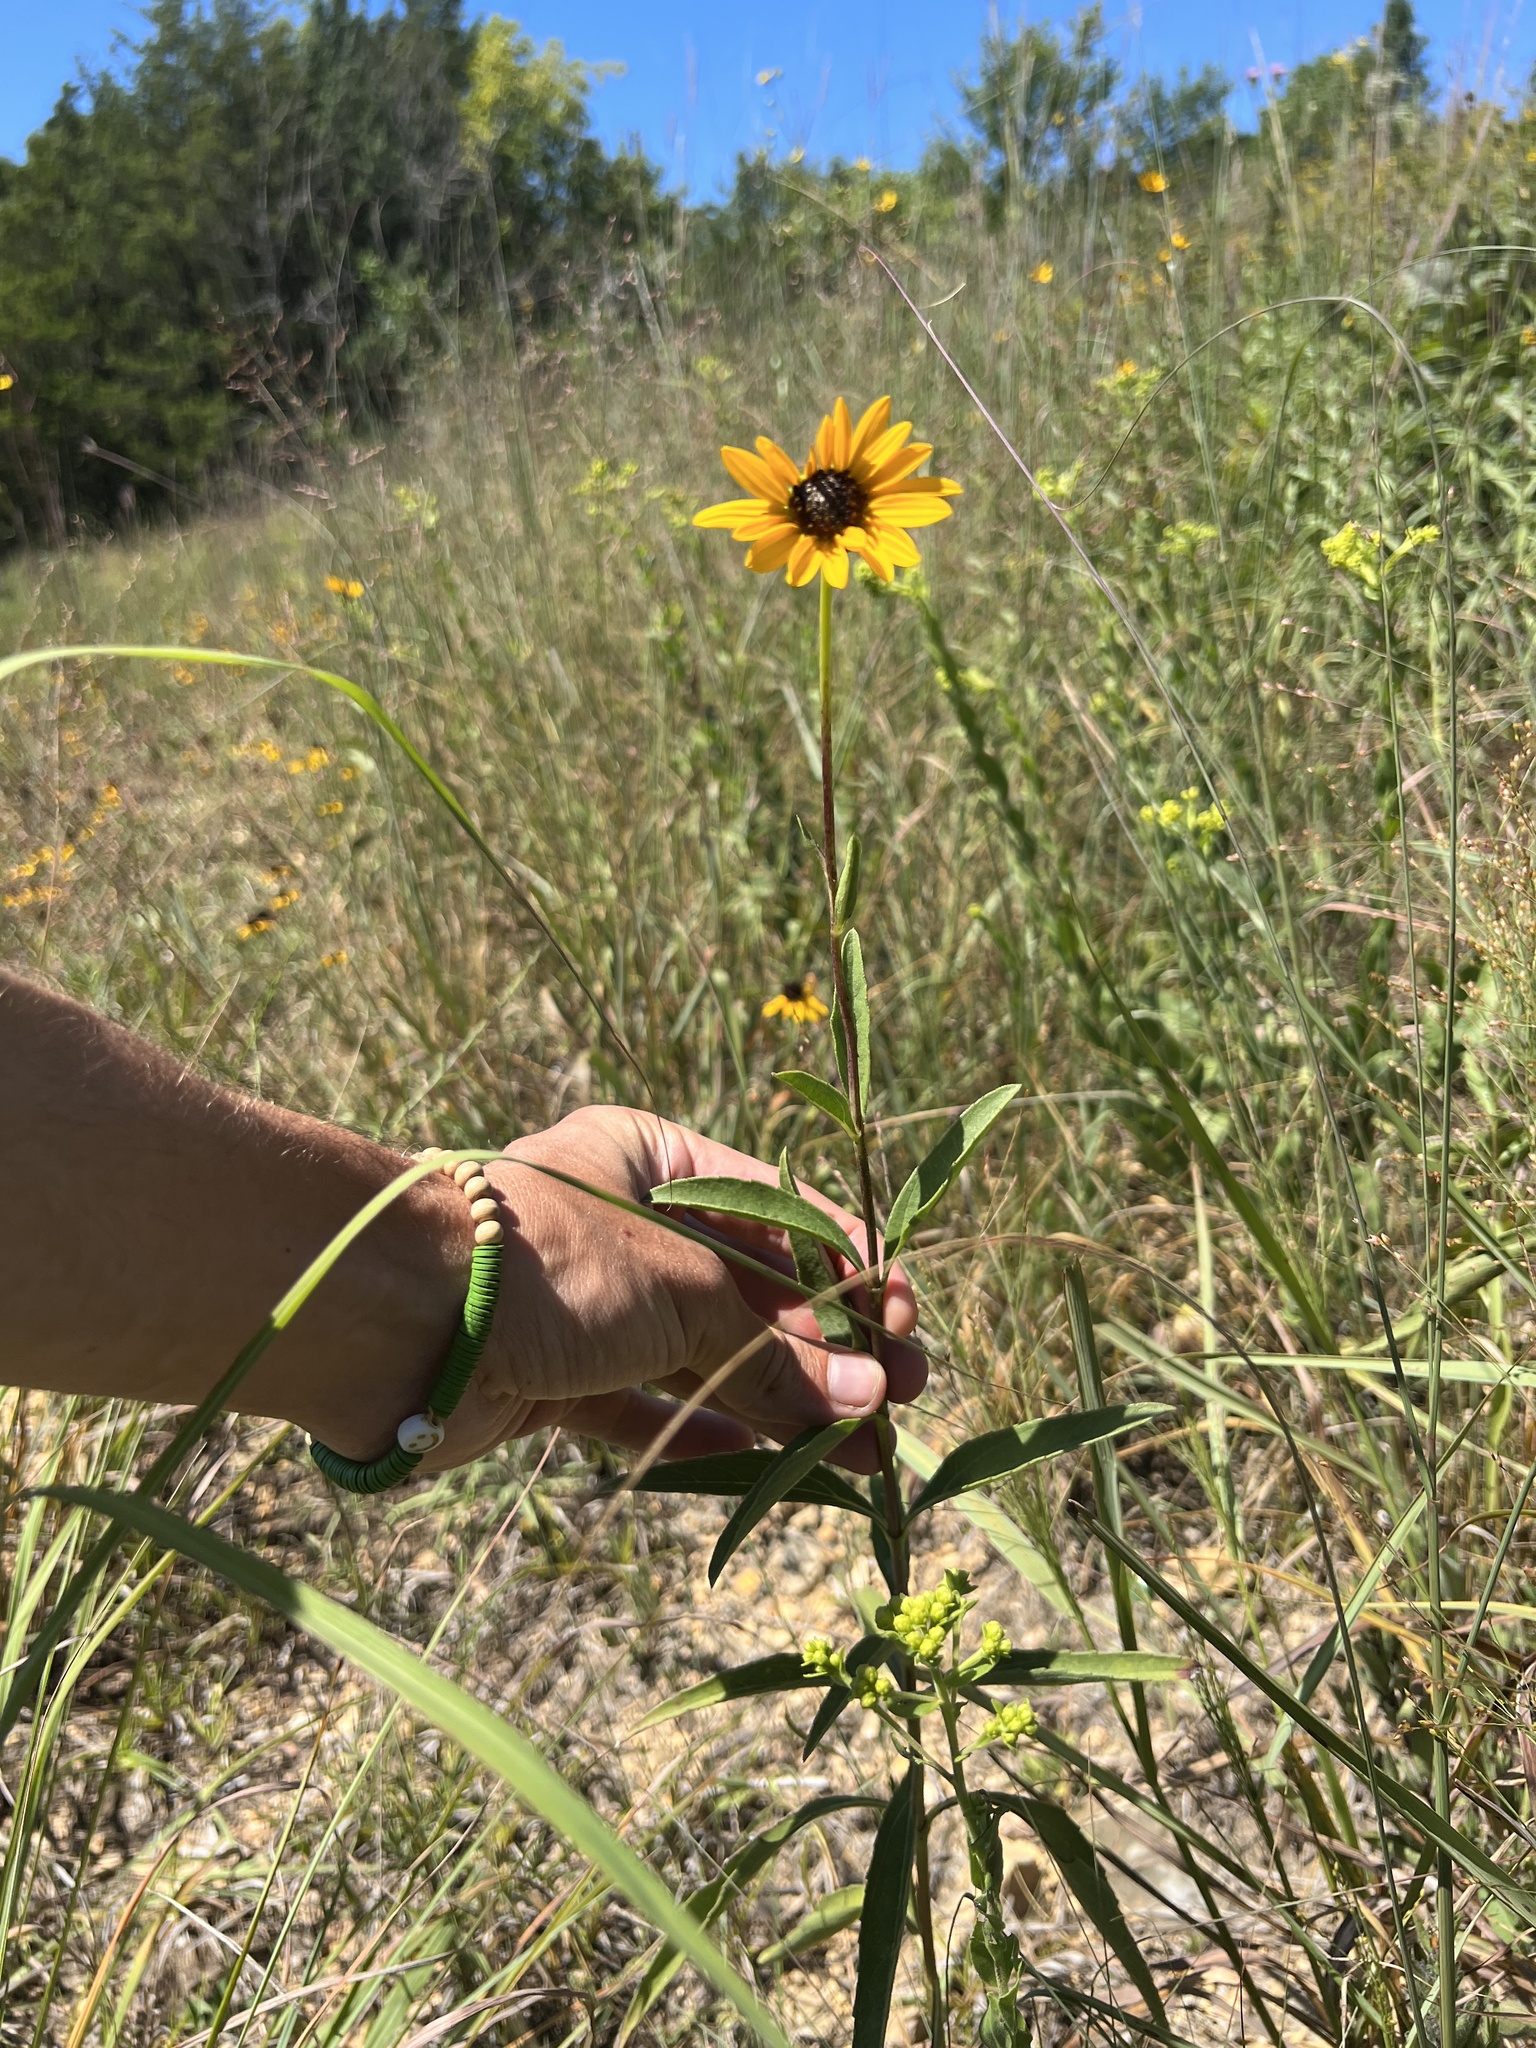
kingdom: Plantae
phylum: Tracheophyta
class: Magnoliopsida
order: Asterales
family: Asteraceae
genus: Helianthus
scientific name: Helianthus pauciflorus
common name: Stiff sunflower
